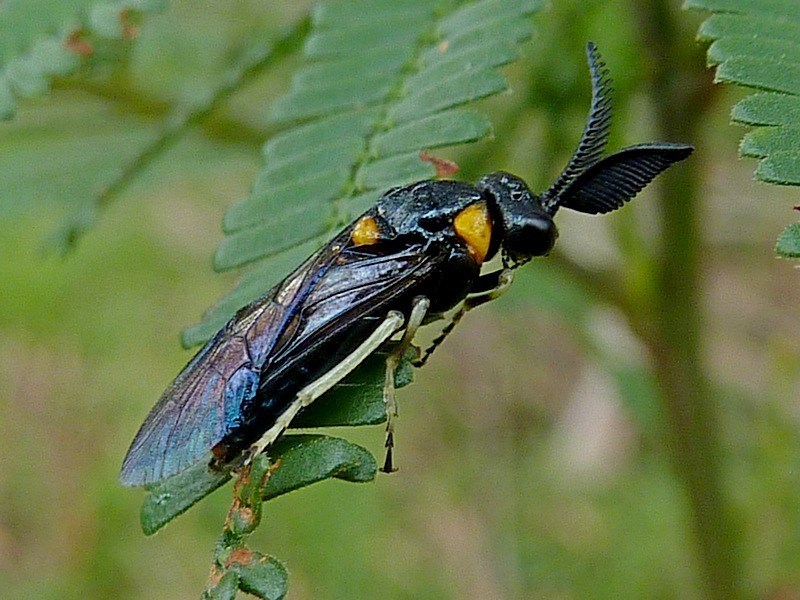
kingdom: Animalia
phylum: Arthropoda
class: Insecta
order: Hymenoptera
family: Pergidae
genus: Pterygophorus
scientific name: Pterygophorus
